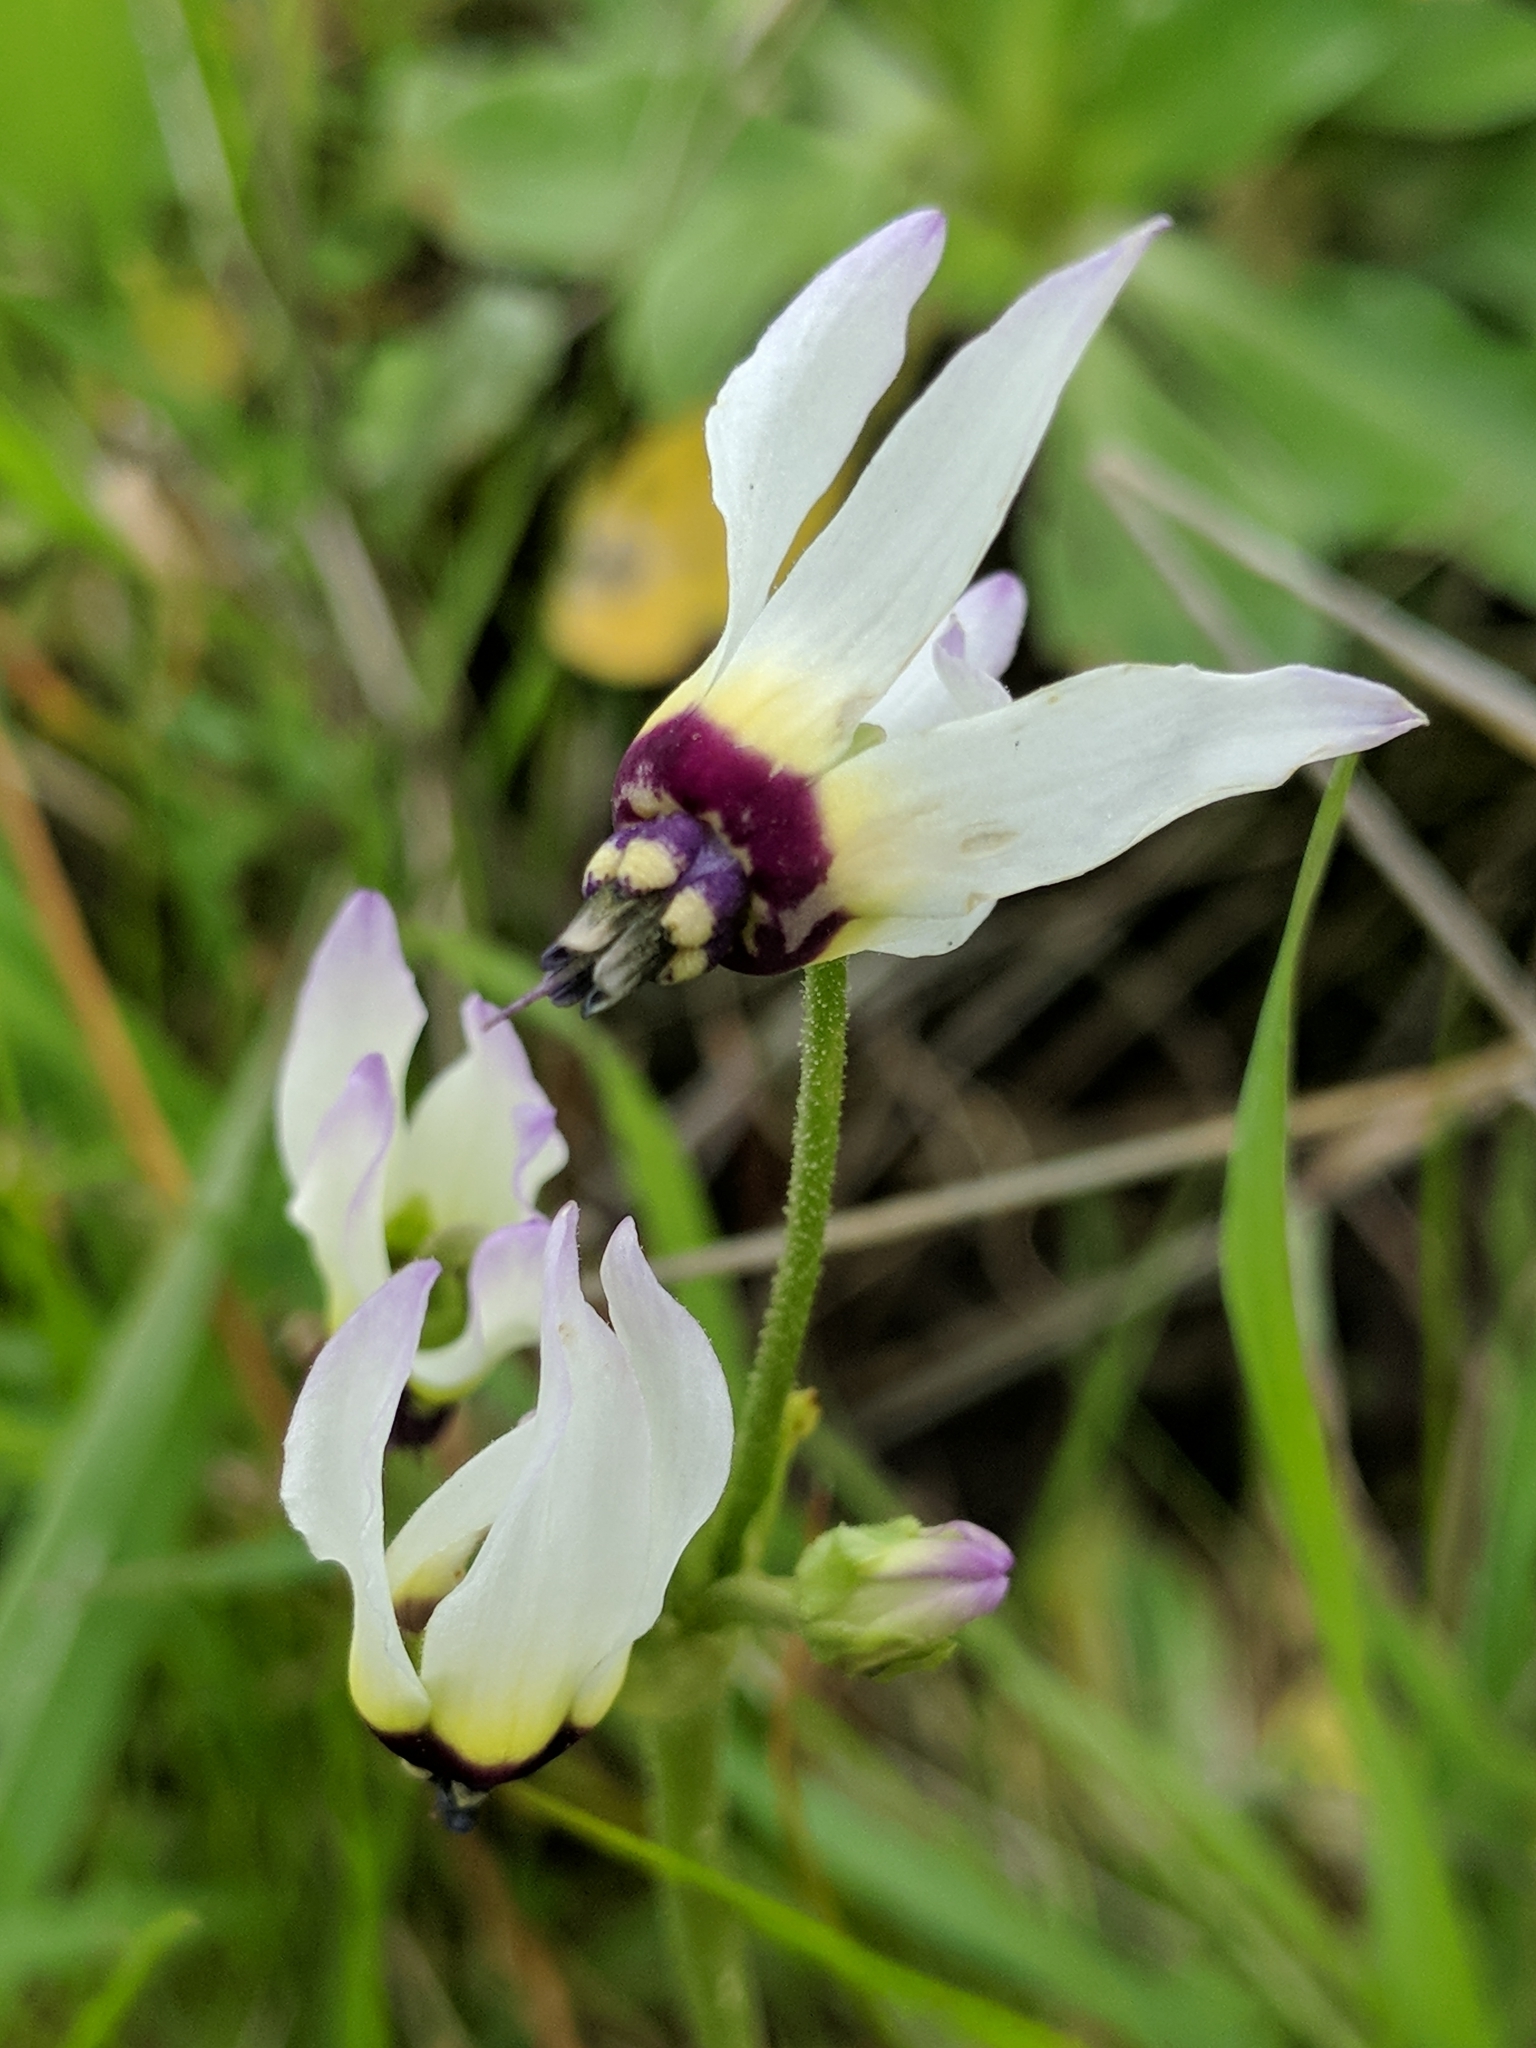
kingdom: Plantae
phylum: Tracheophyta
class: Magnoliopsida
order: Ericales
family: Primulaceae
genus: Dodecatheon
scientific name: Dodecatheon clevelandii
